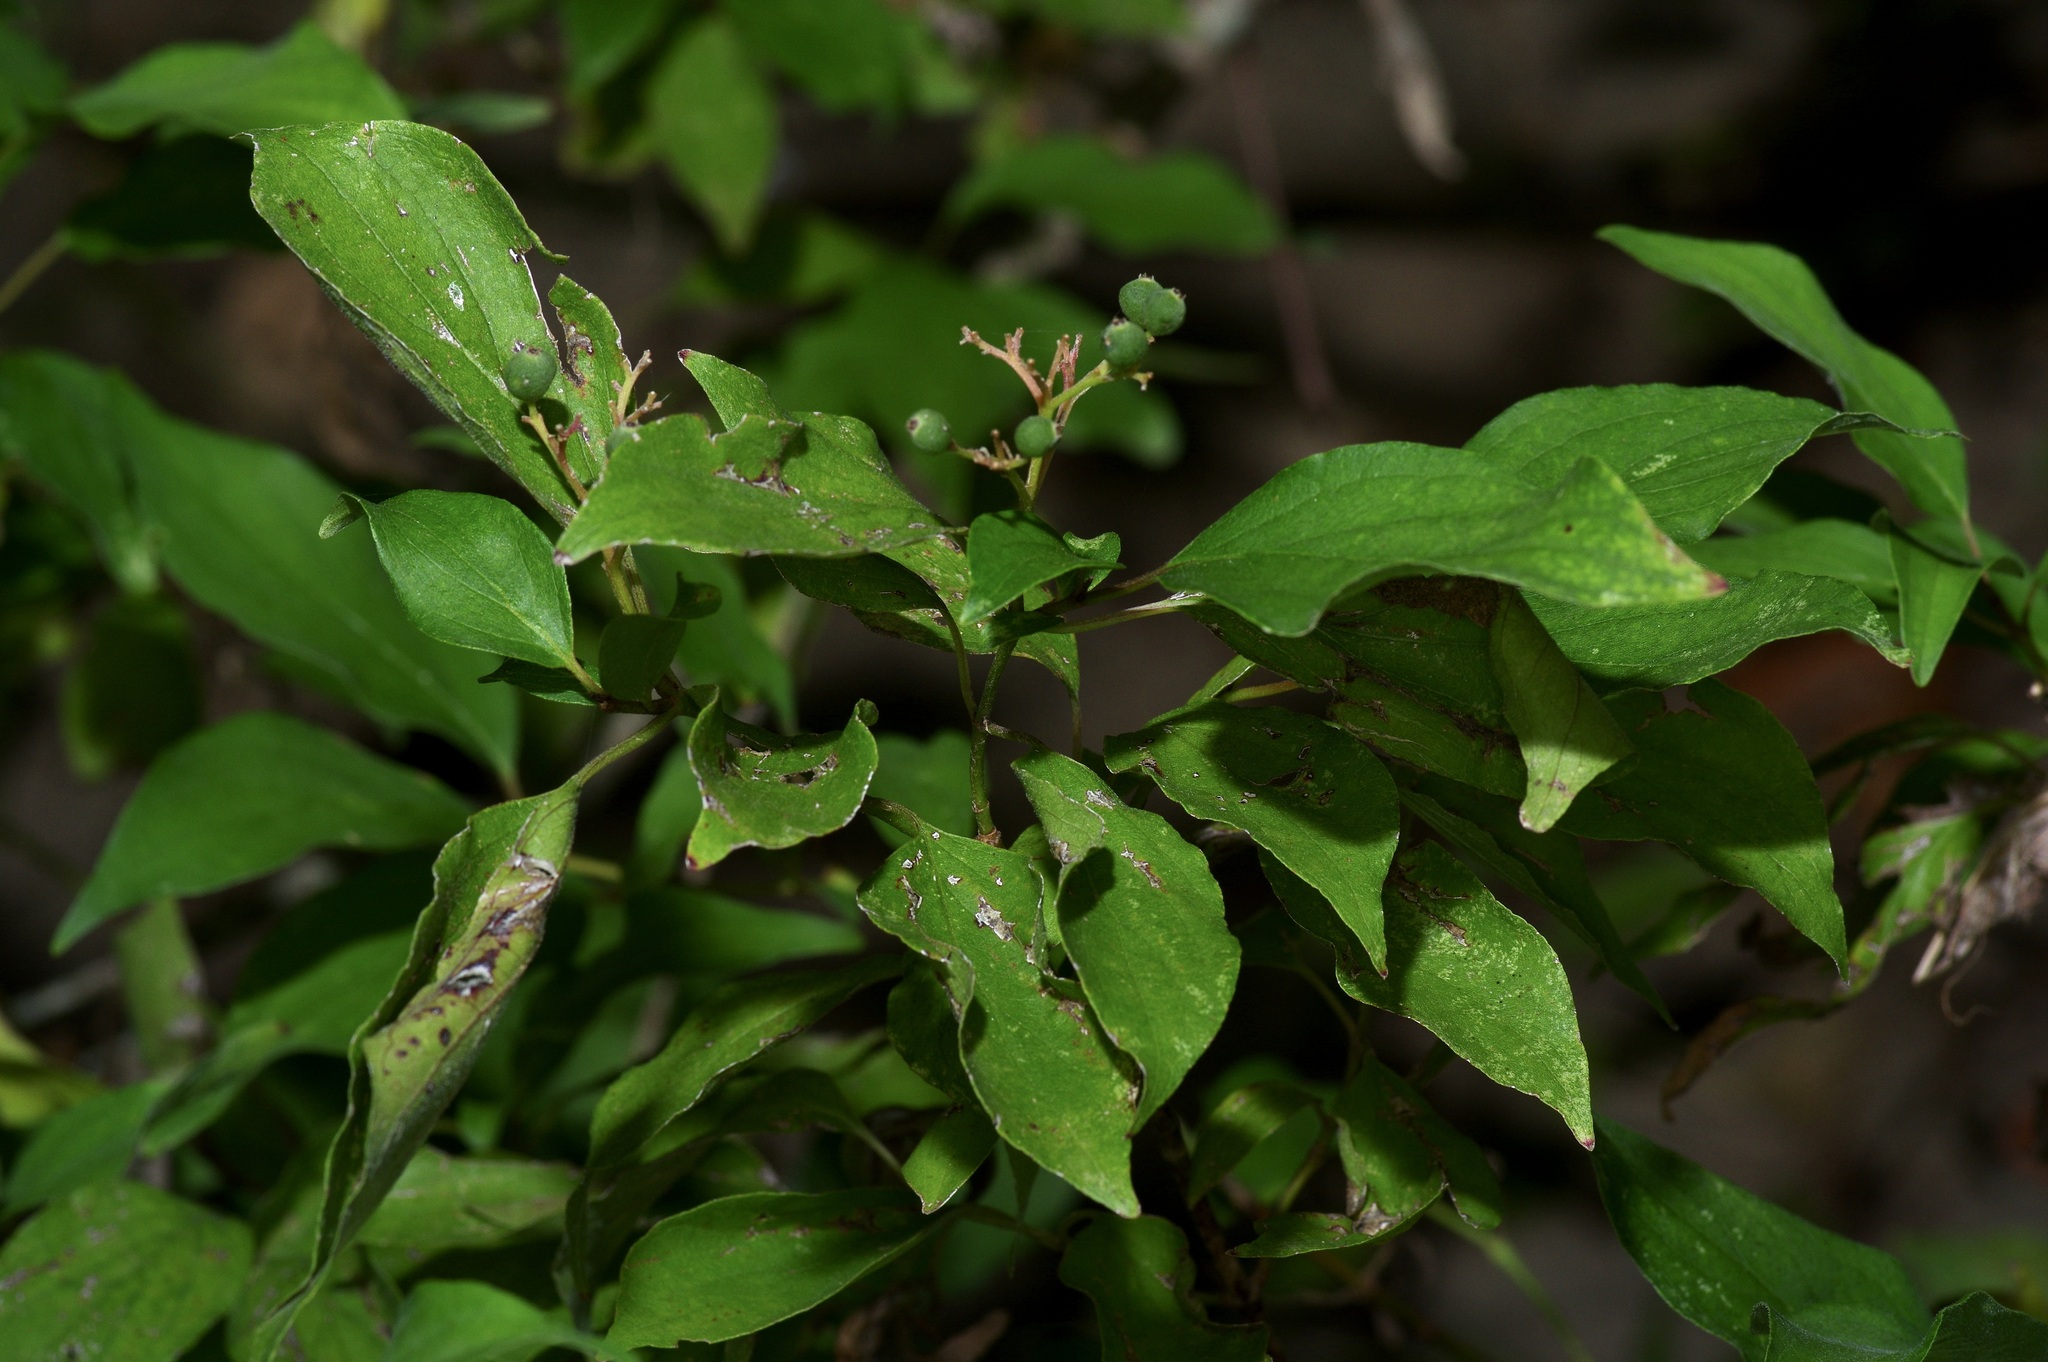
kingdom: Plantae
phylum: Tracheophyta
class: Magnoliopsida
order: Cornales
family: Cornaceae
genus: Cornus
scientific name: Cornus drummondii
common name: Rough-leaf dogwood
